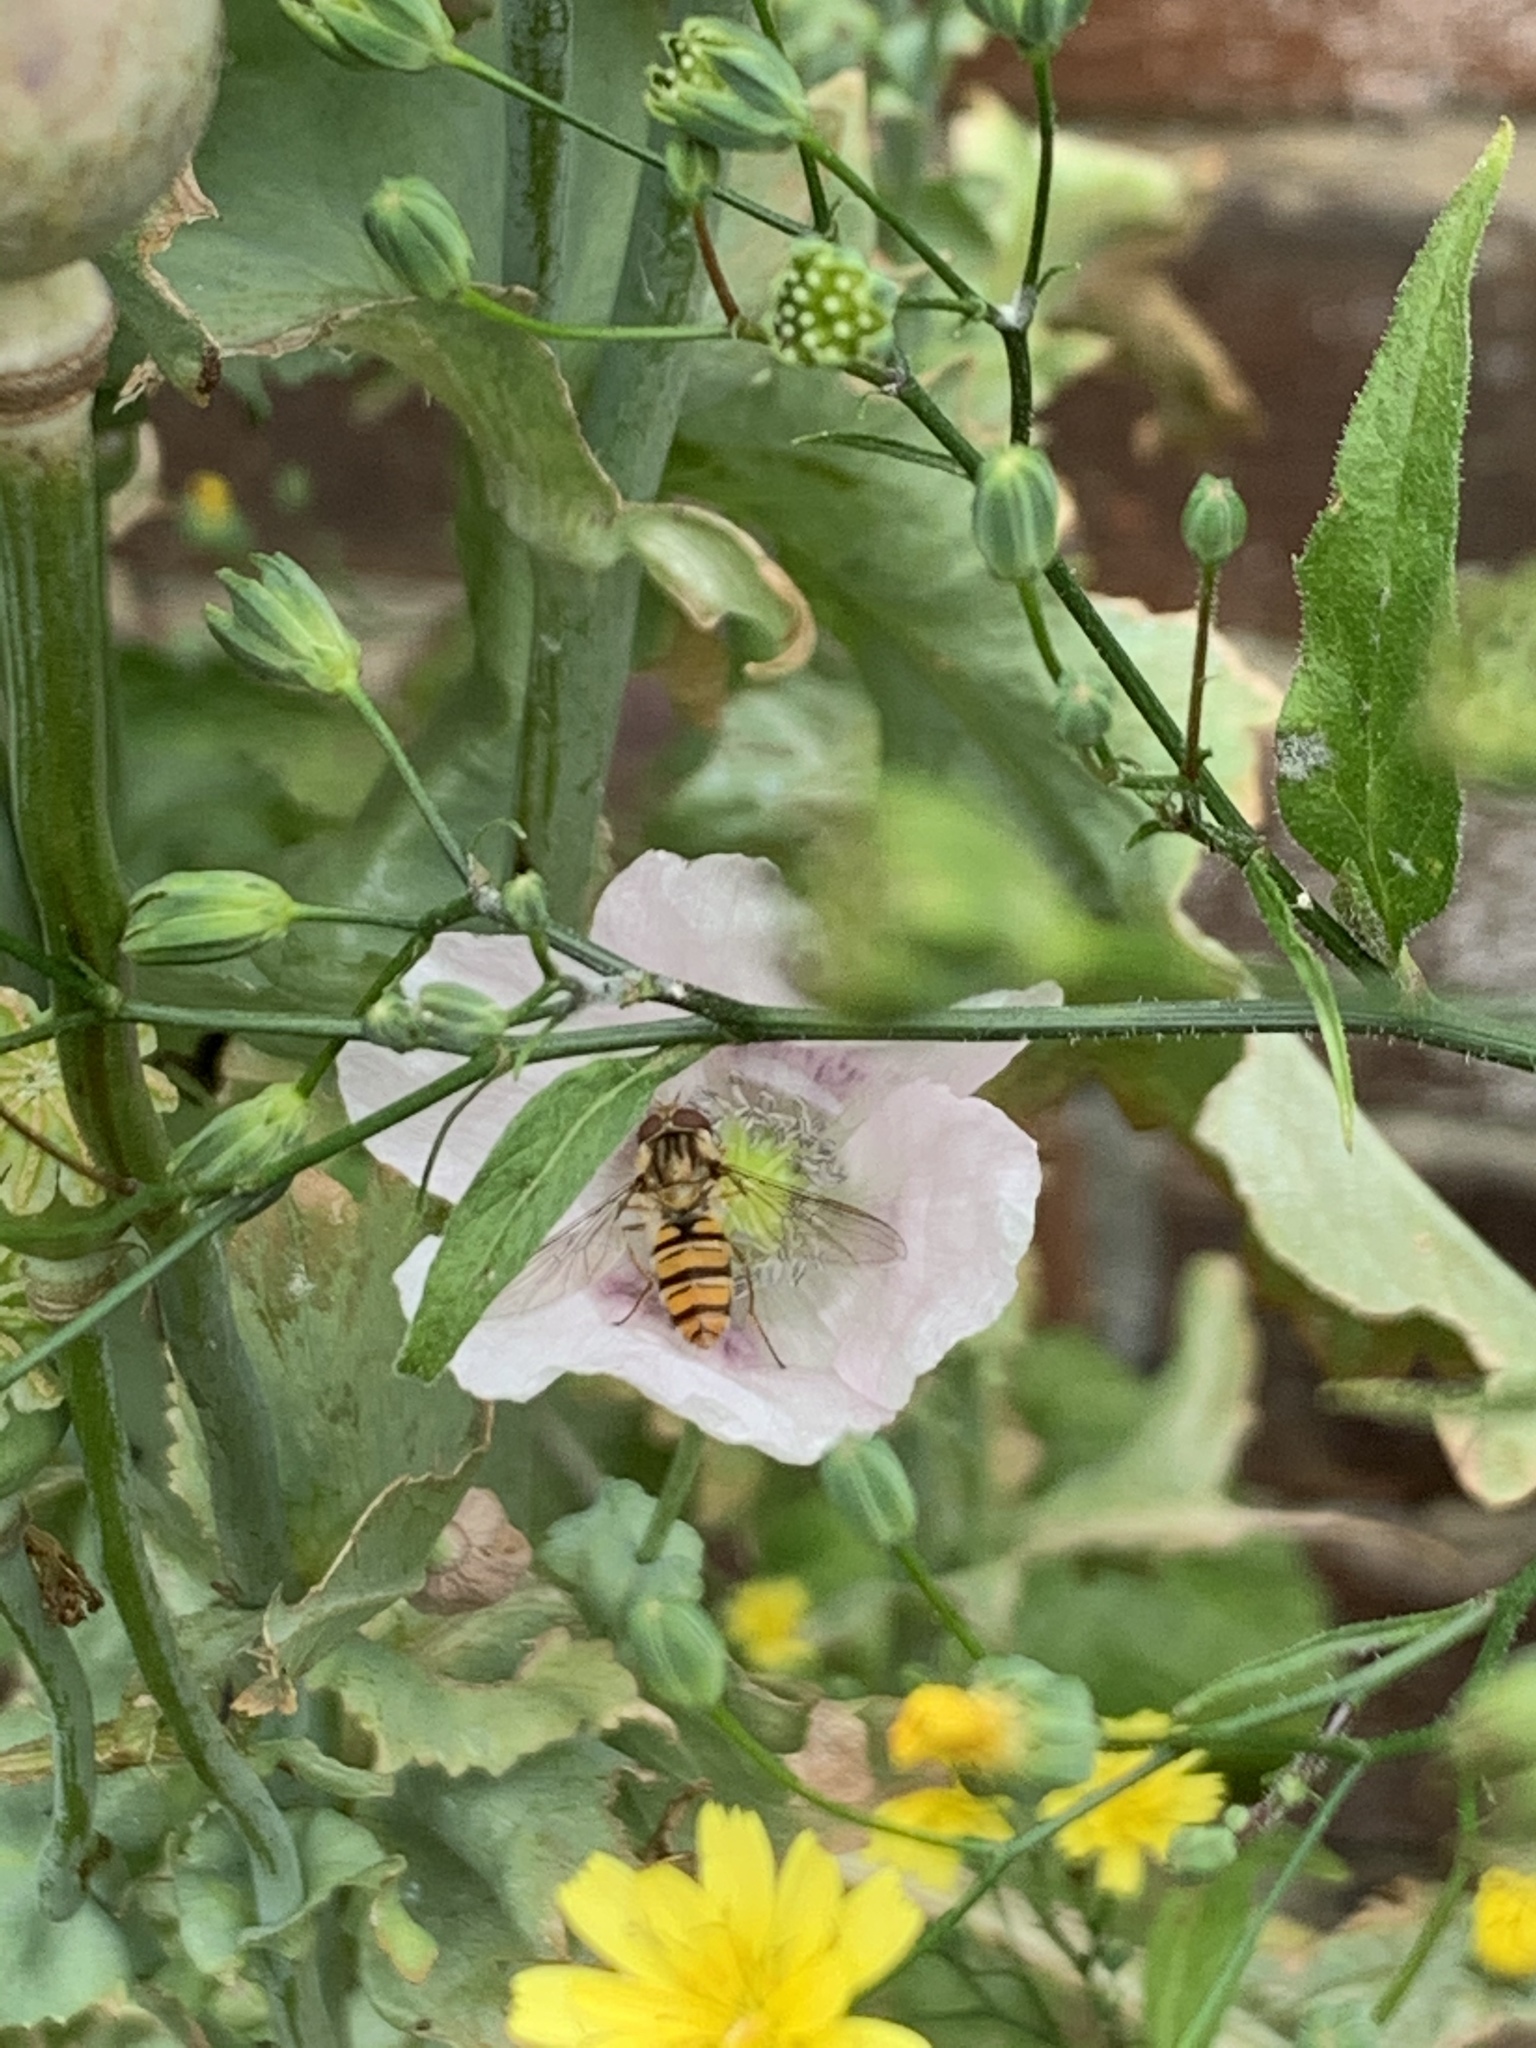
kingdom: Animalia
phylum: Arthropoda
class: Insecta
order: Diptera
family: Syrphidae
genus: Episyrphus
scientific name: Episyrphus balteatus
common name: Marmalade hoverfly
